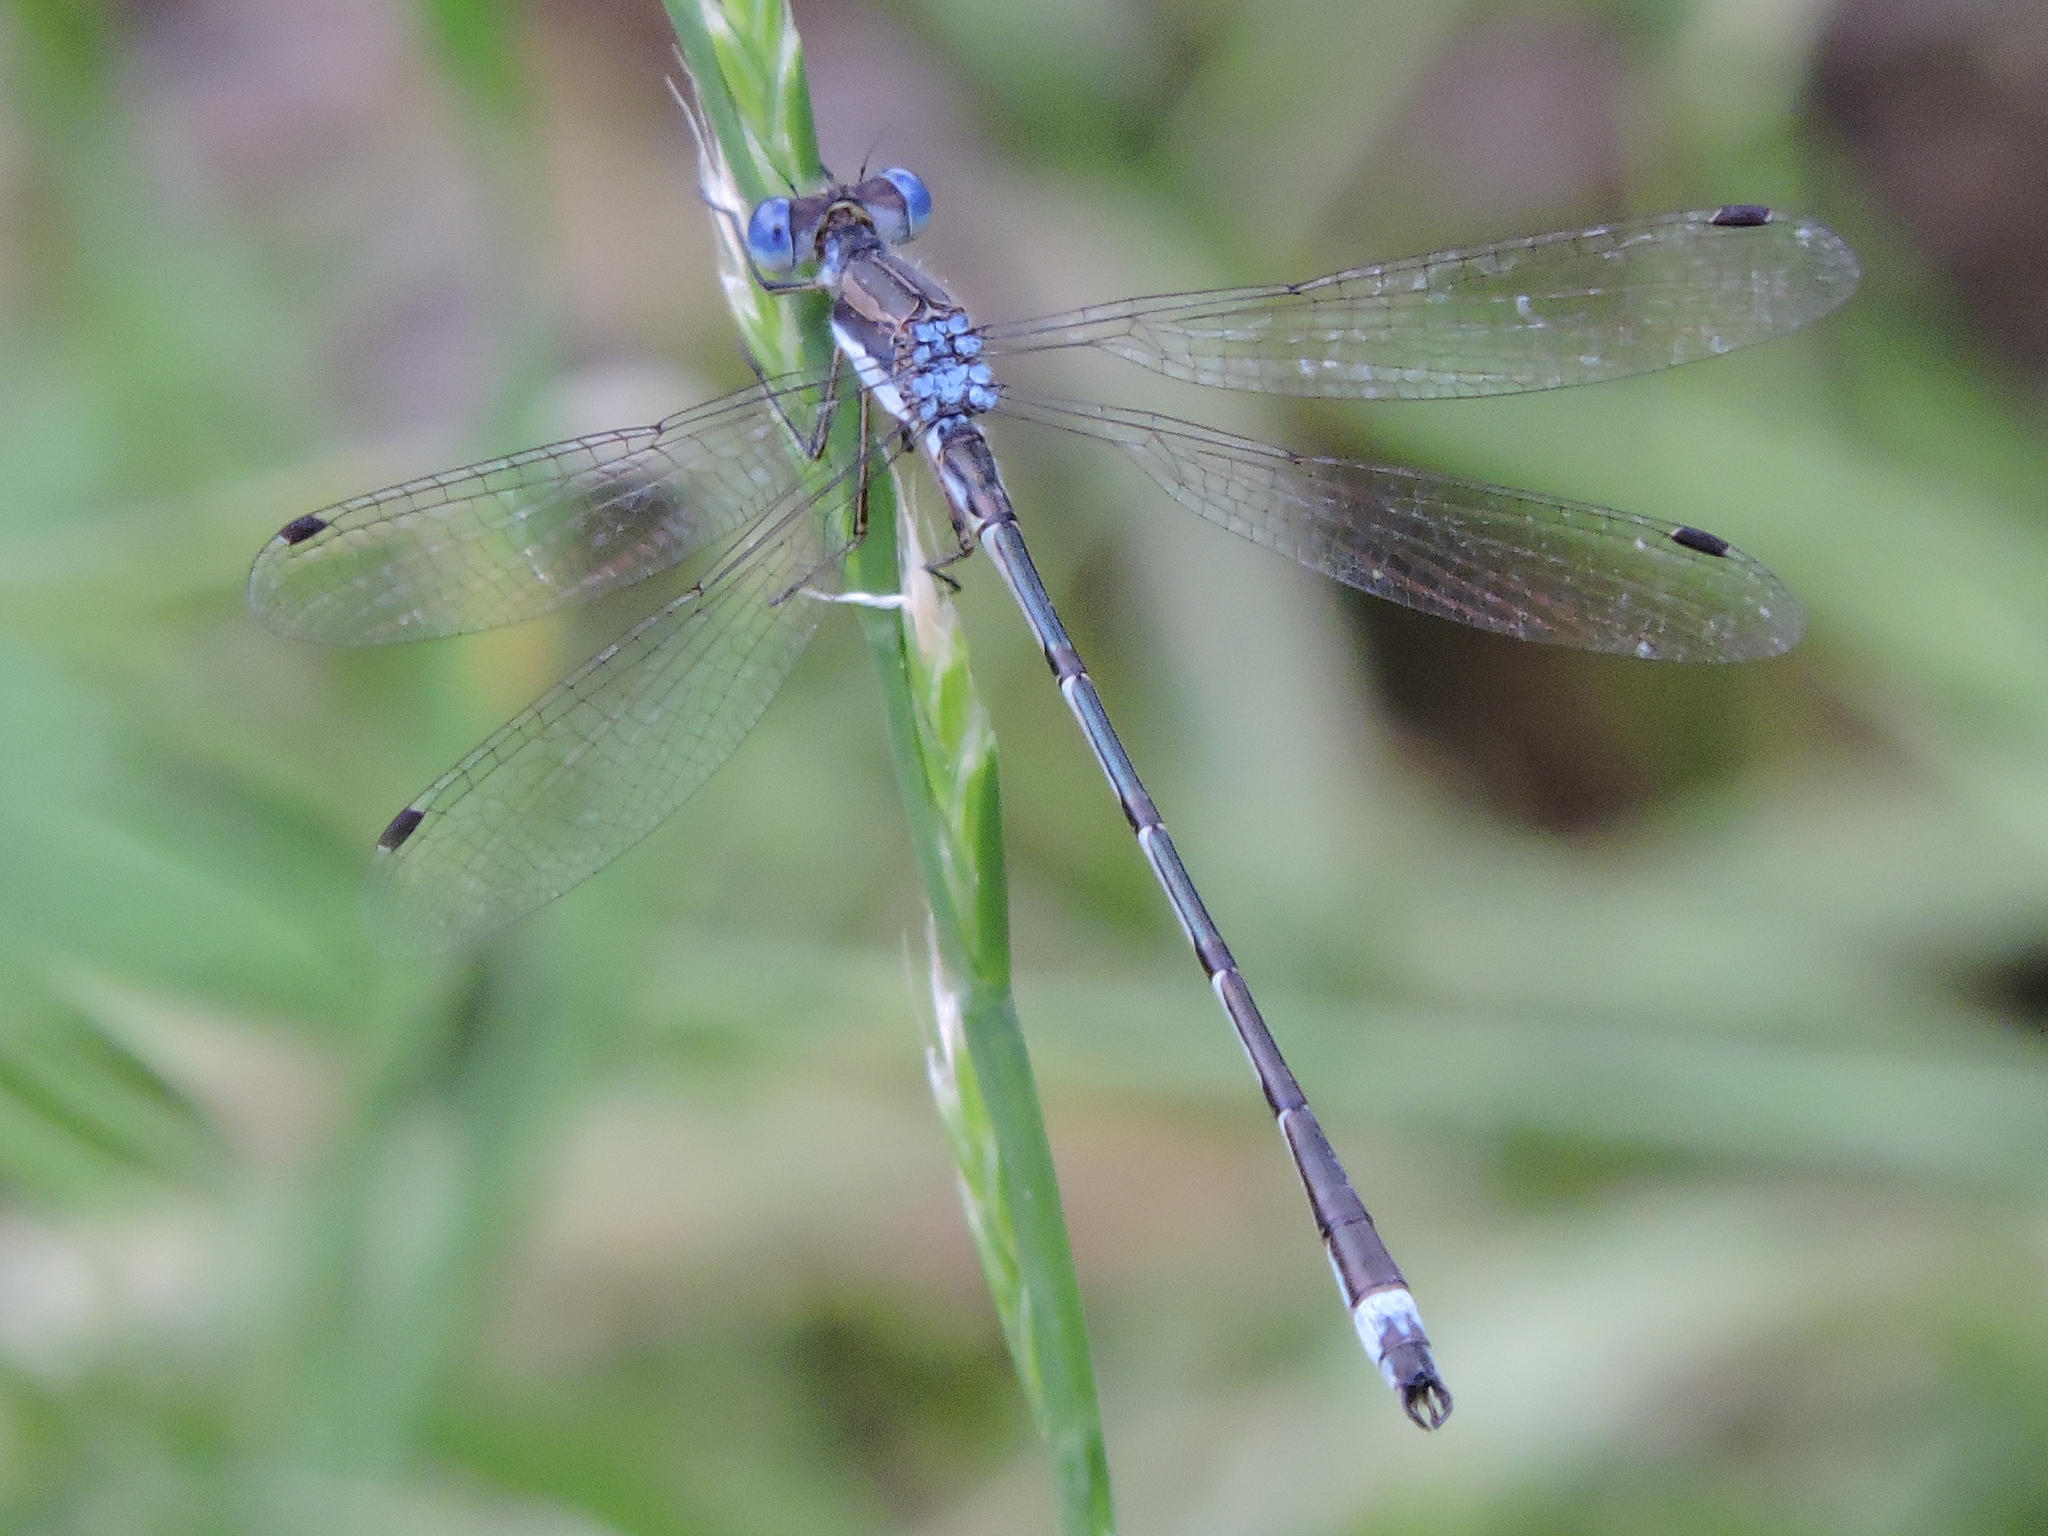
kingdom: Animalia
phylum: Arthropoda
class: Insecta
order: Odonata
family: Lestidae
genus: Lestes
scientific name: Lestes australis
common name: Southern spreadwing
